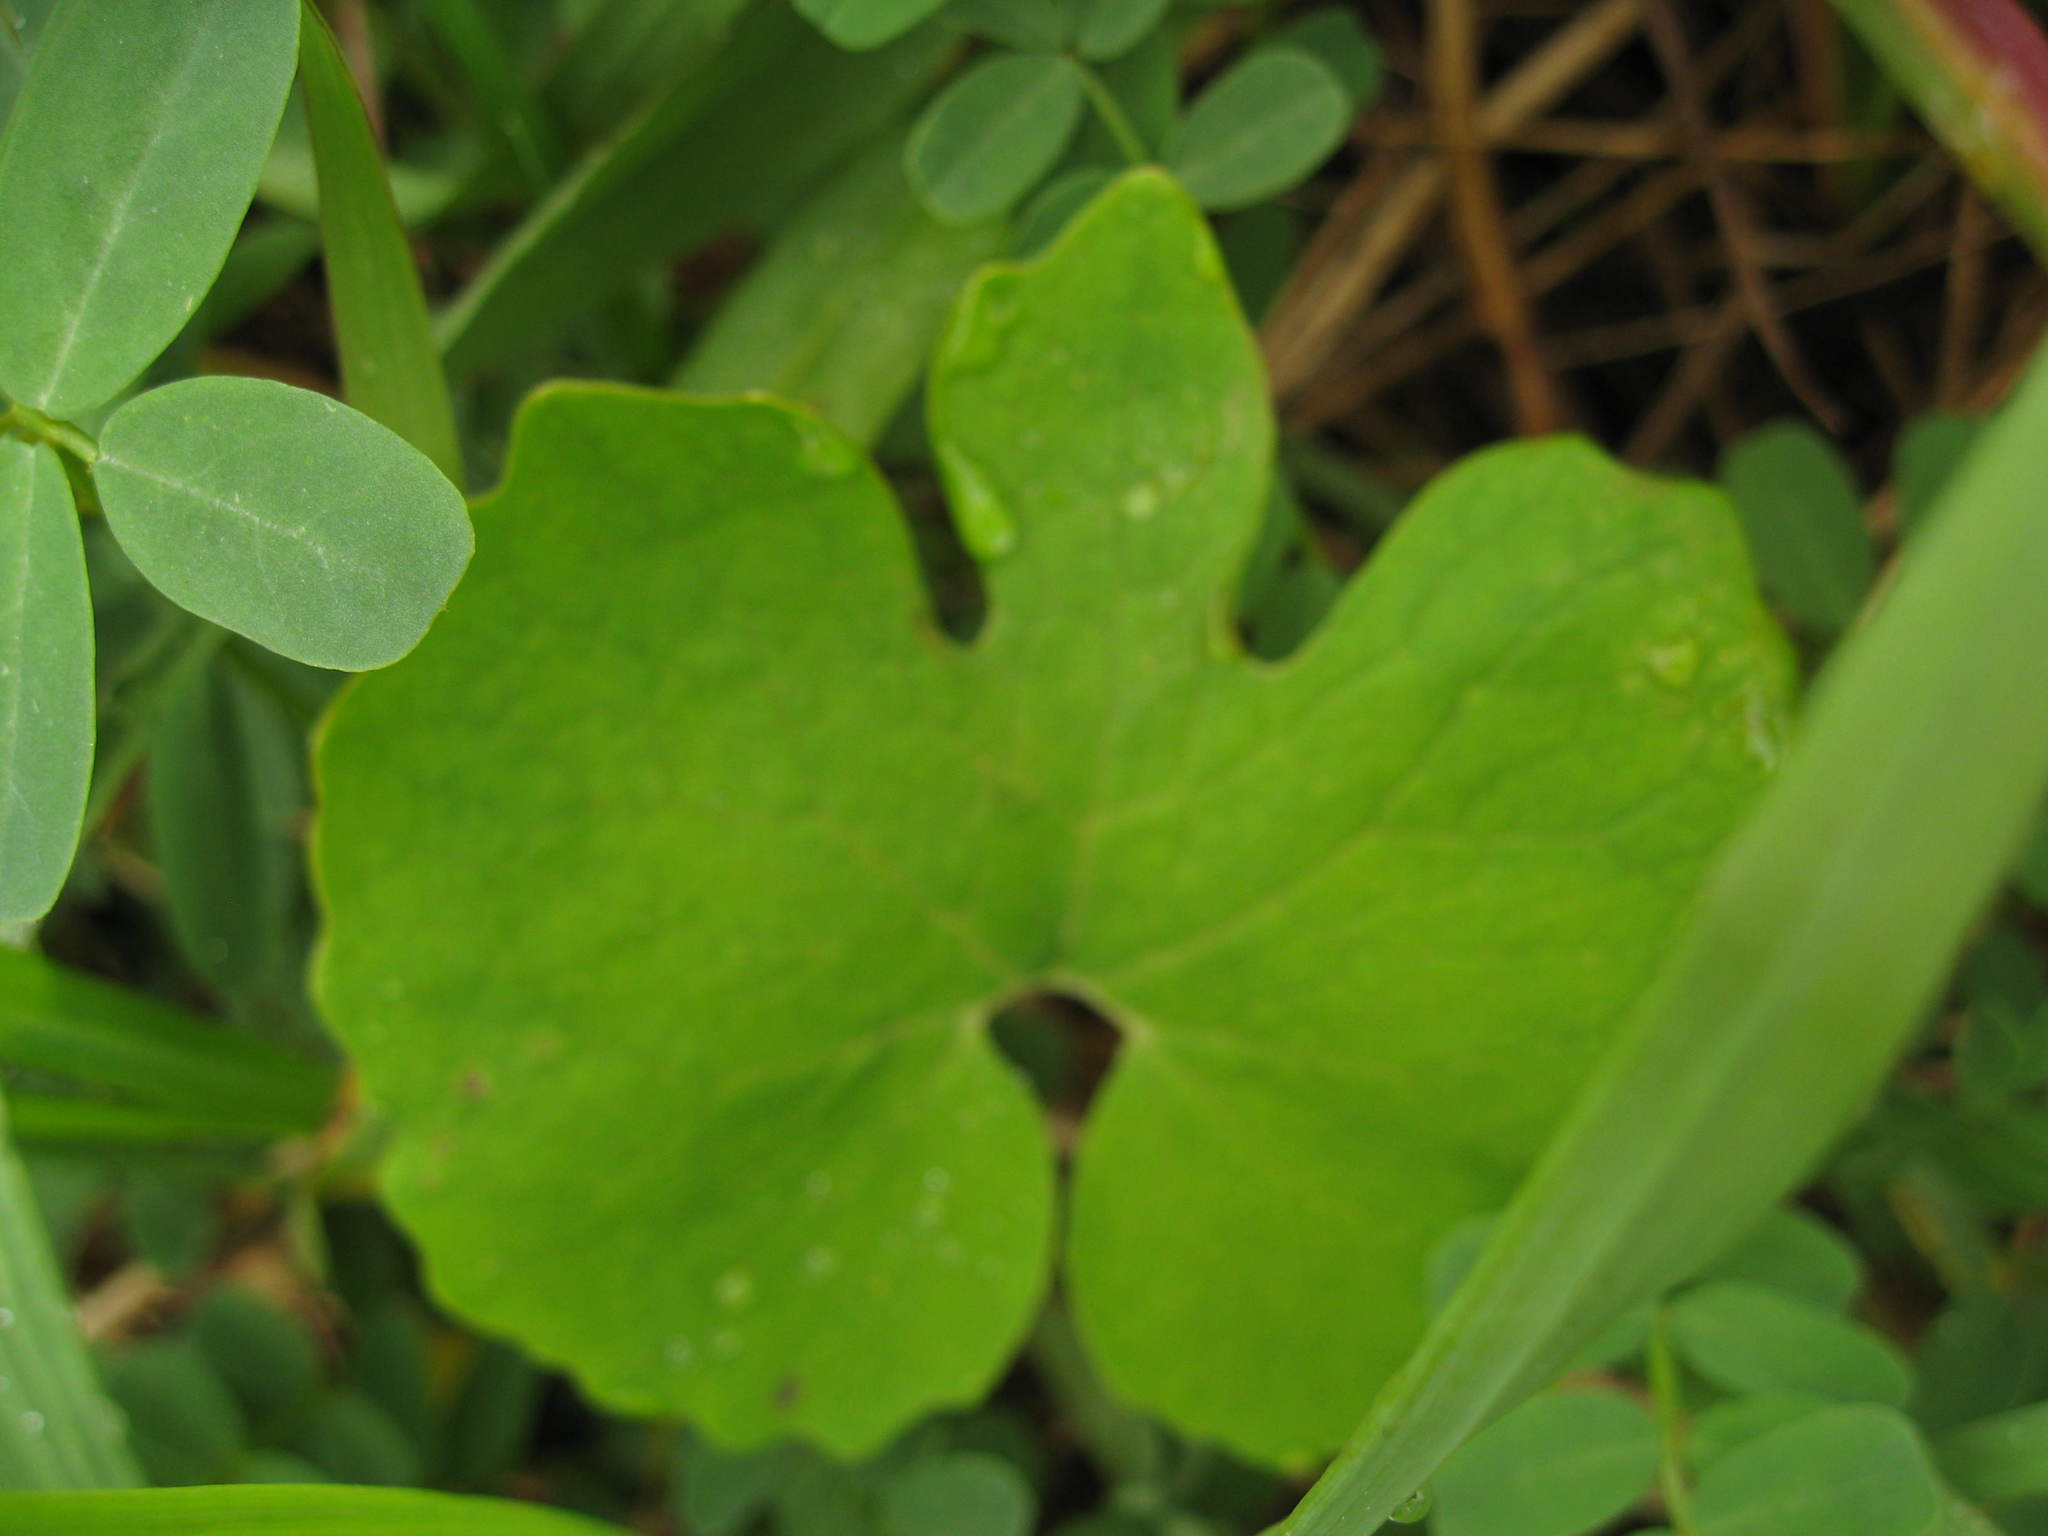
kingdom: Plantae
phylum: Tracheophyta
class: Magnoliopsida
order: Ranunculales
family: Papaveraceae
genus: Sanguinaria
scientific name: Sanguinaria canadensis
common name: Bloodroot
